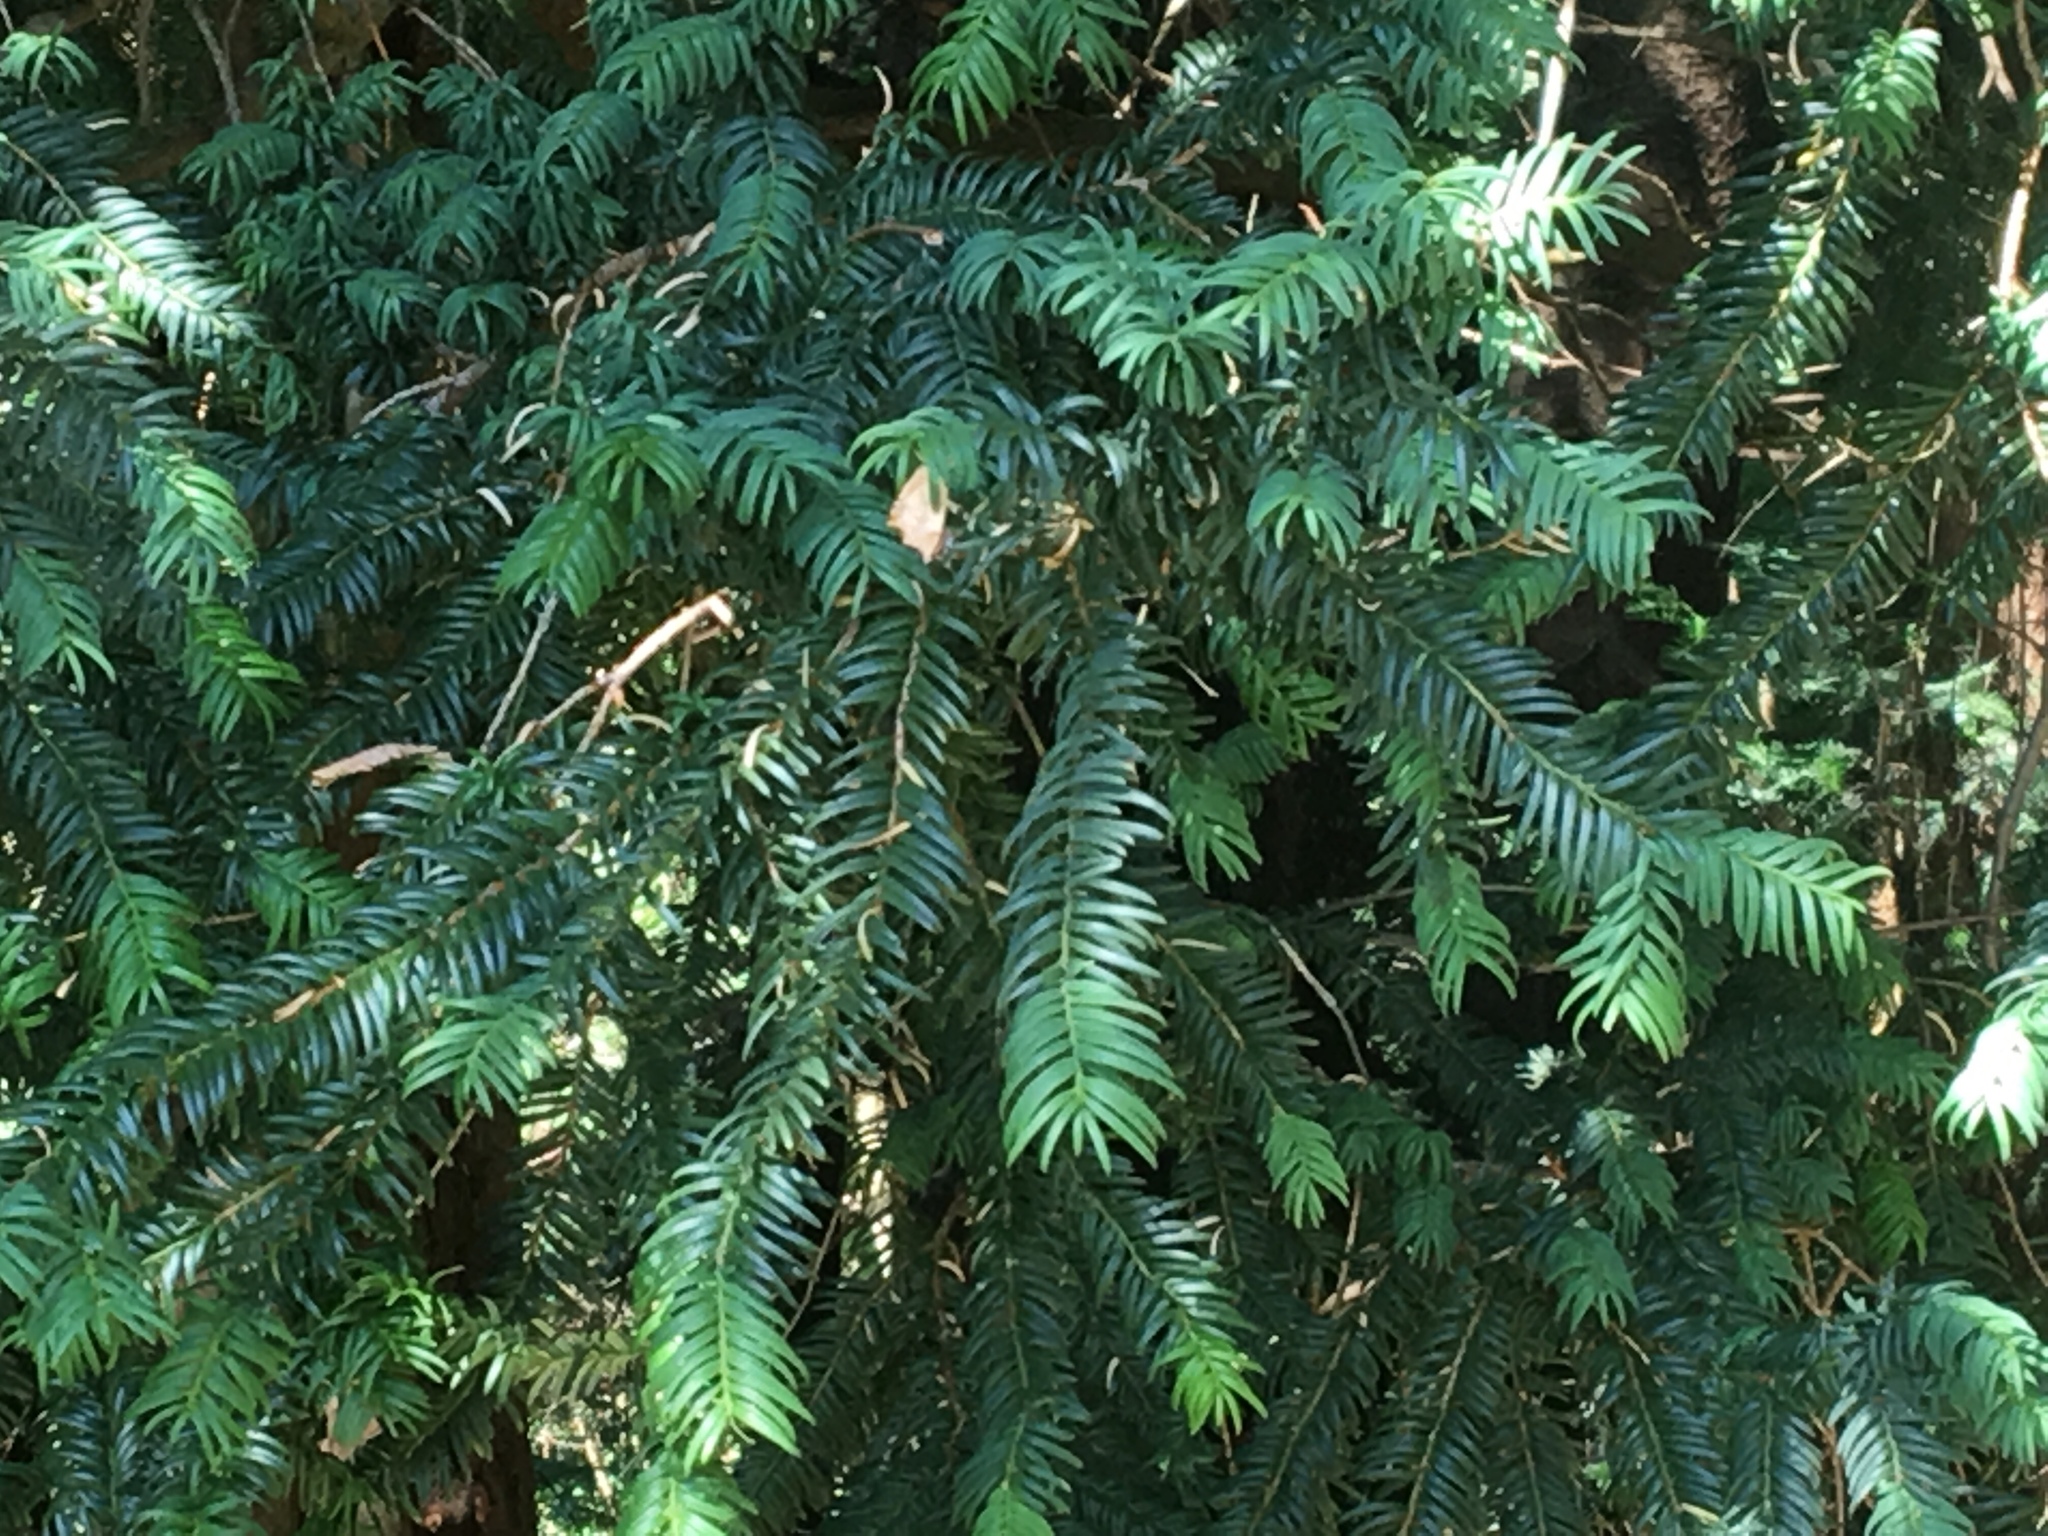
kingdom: Plantae
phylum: Tracheophyta
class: Pinopsida
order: Pinales
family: Taxaceae
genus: Taxus
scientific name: Taxus baccata
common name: Yew
